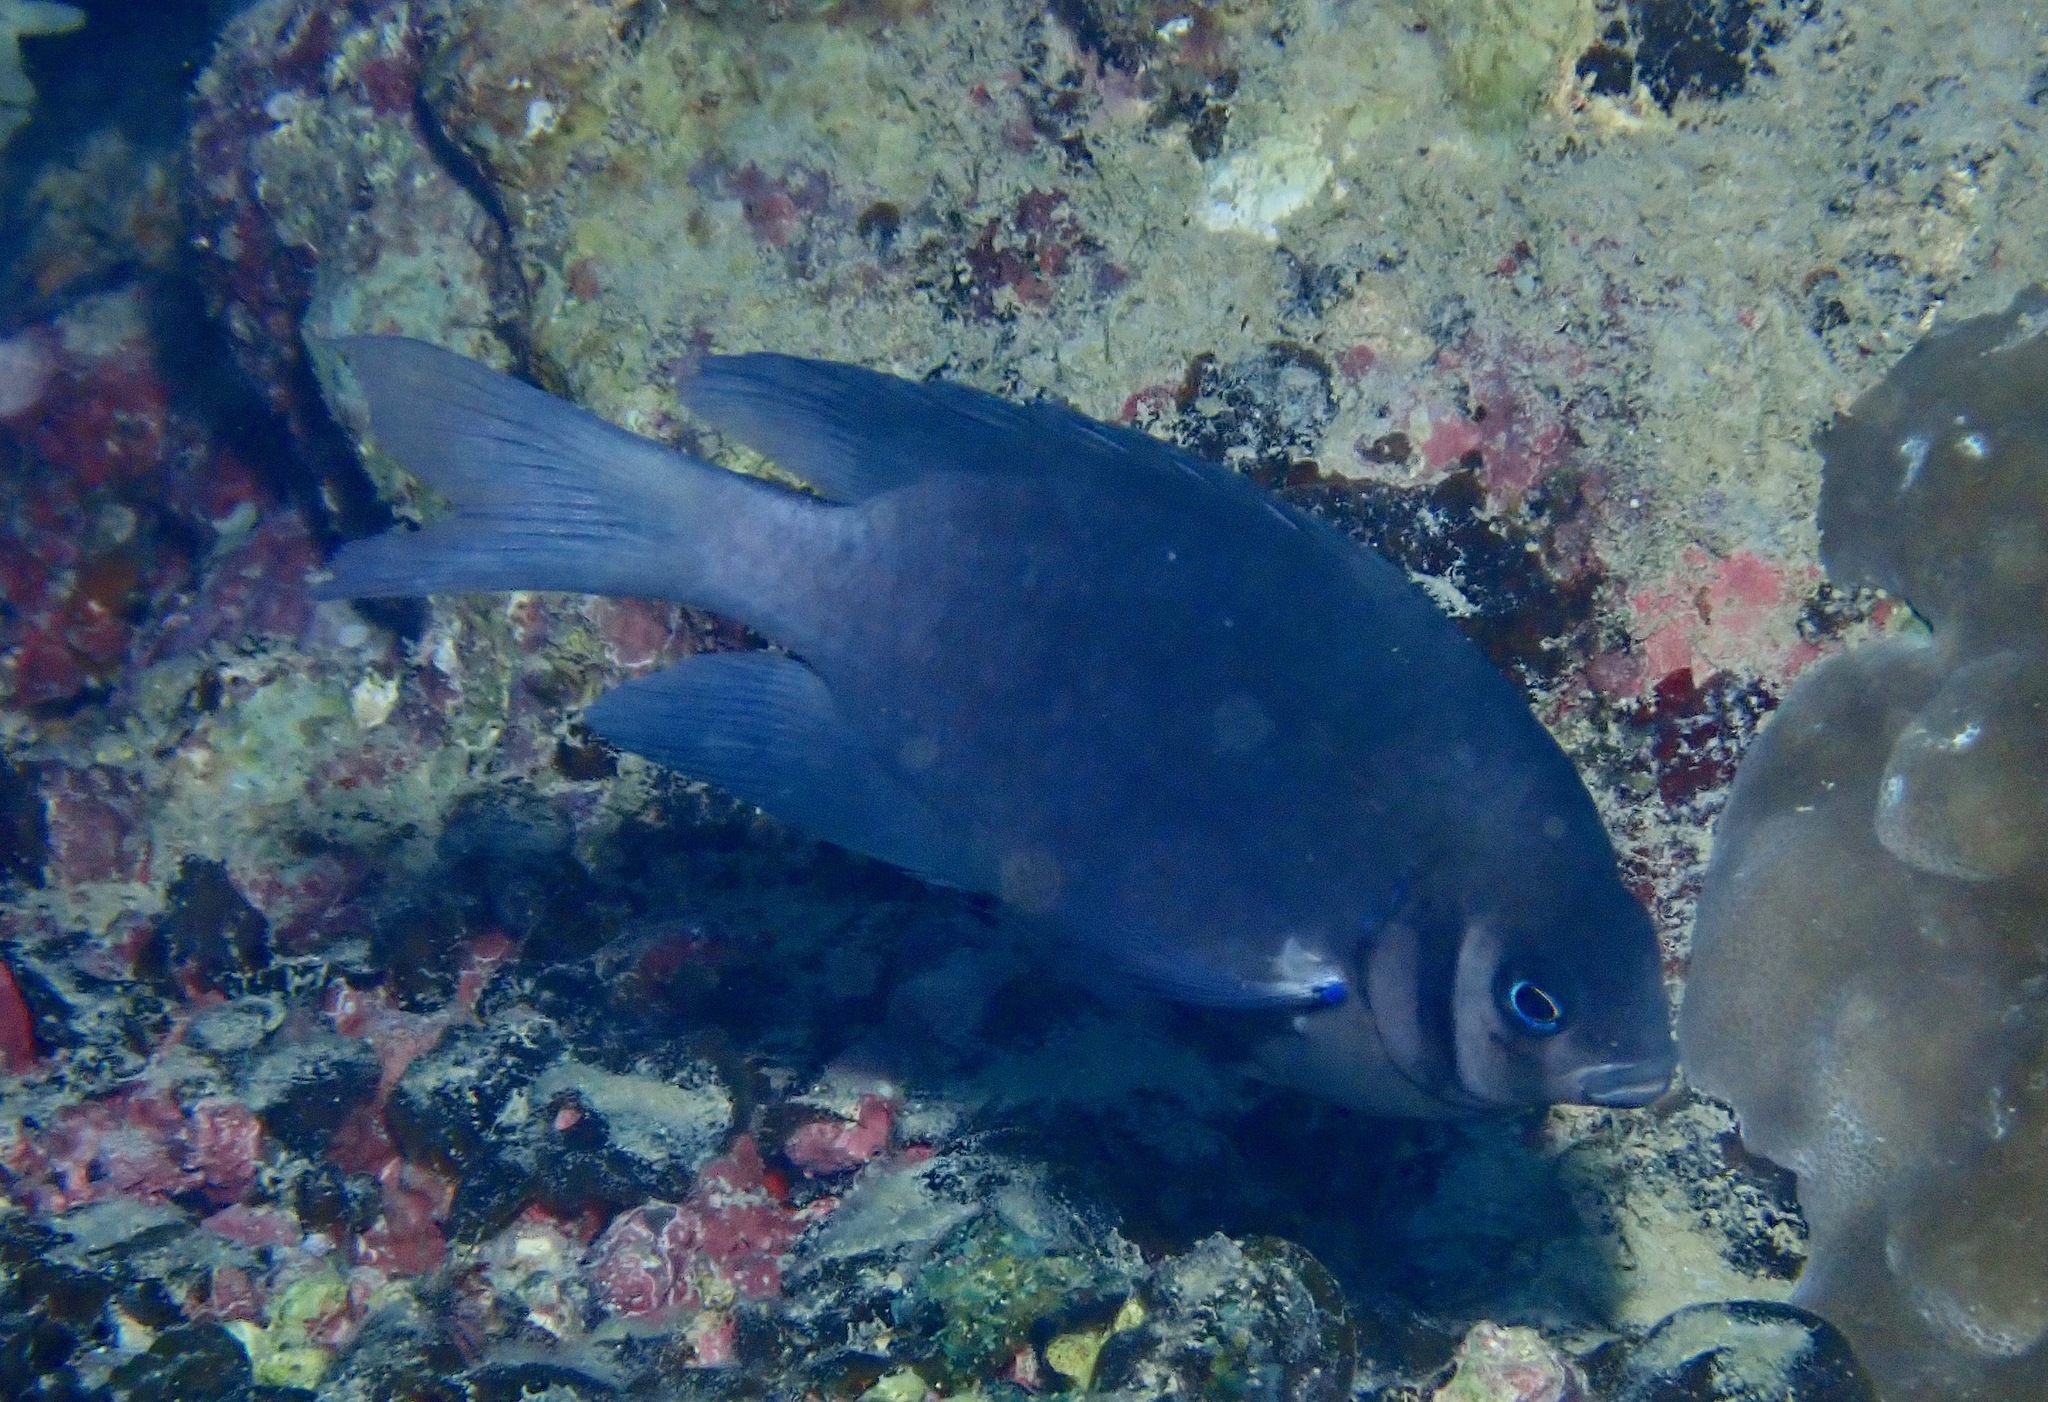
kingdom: Animalia
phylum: Chordata
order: Perciformes
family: Pomacentridae
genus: Neoglyphidodon
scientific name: Neoglyphidodon nigroris
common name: Behn's damsel
